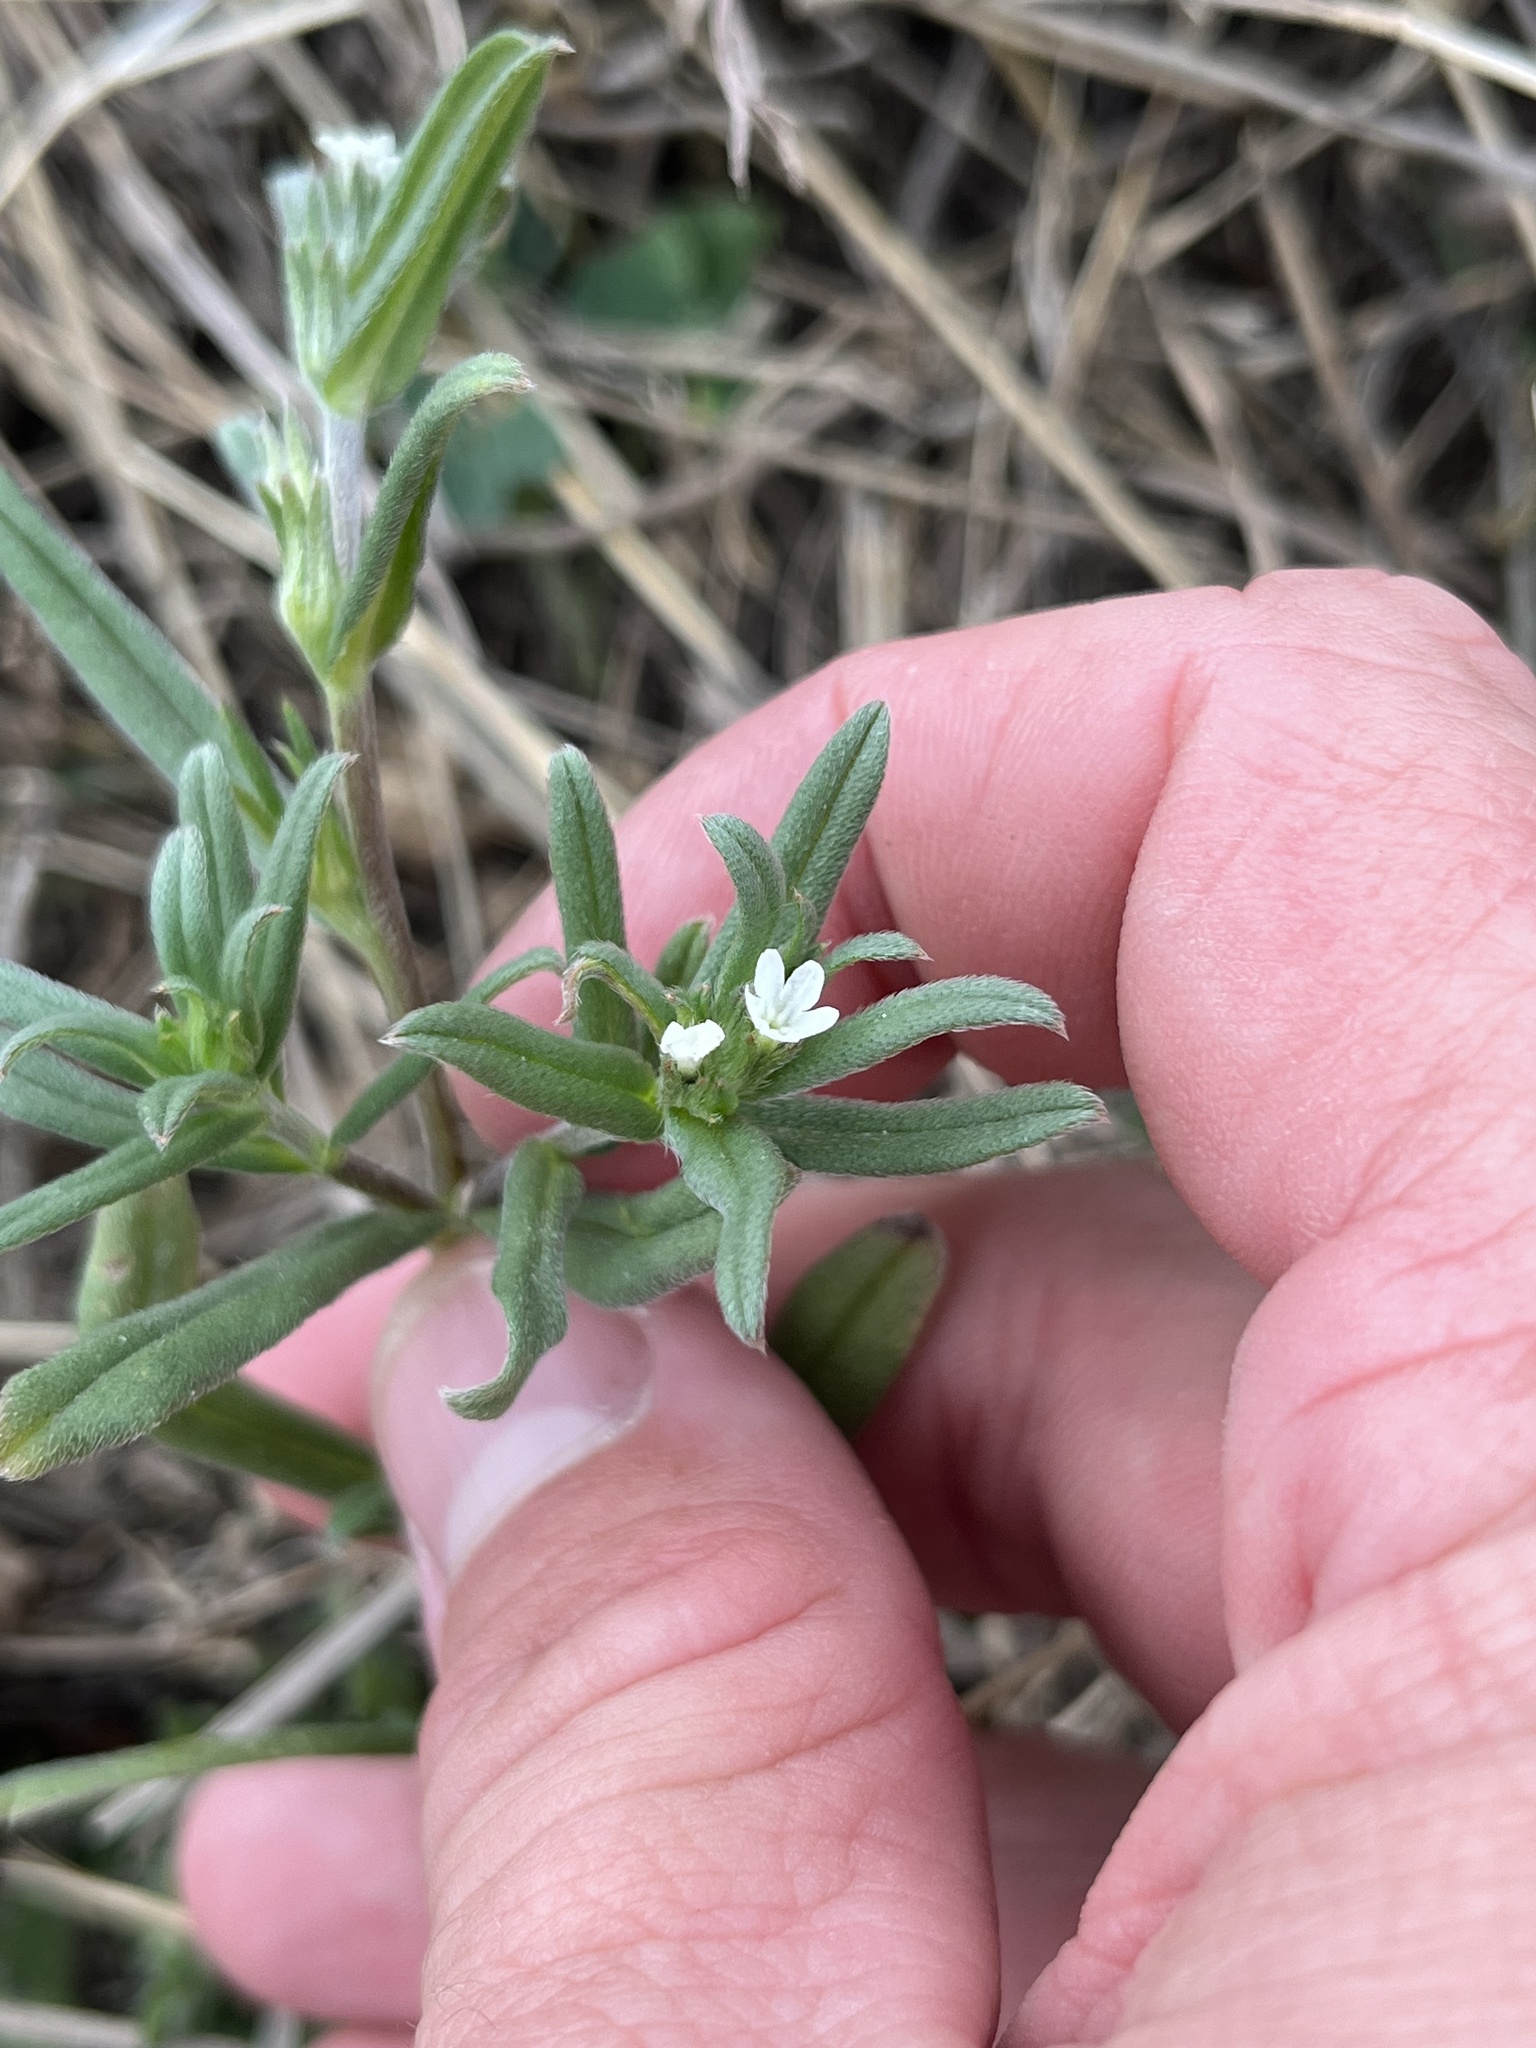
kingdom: Plantae
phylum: Tracheophyta
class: Magnoliopsida
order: Boraginales
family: Boraginaceae
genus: Buglossoides
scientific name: Buglossoides arvensis
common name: Corn gromwell
